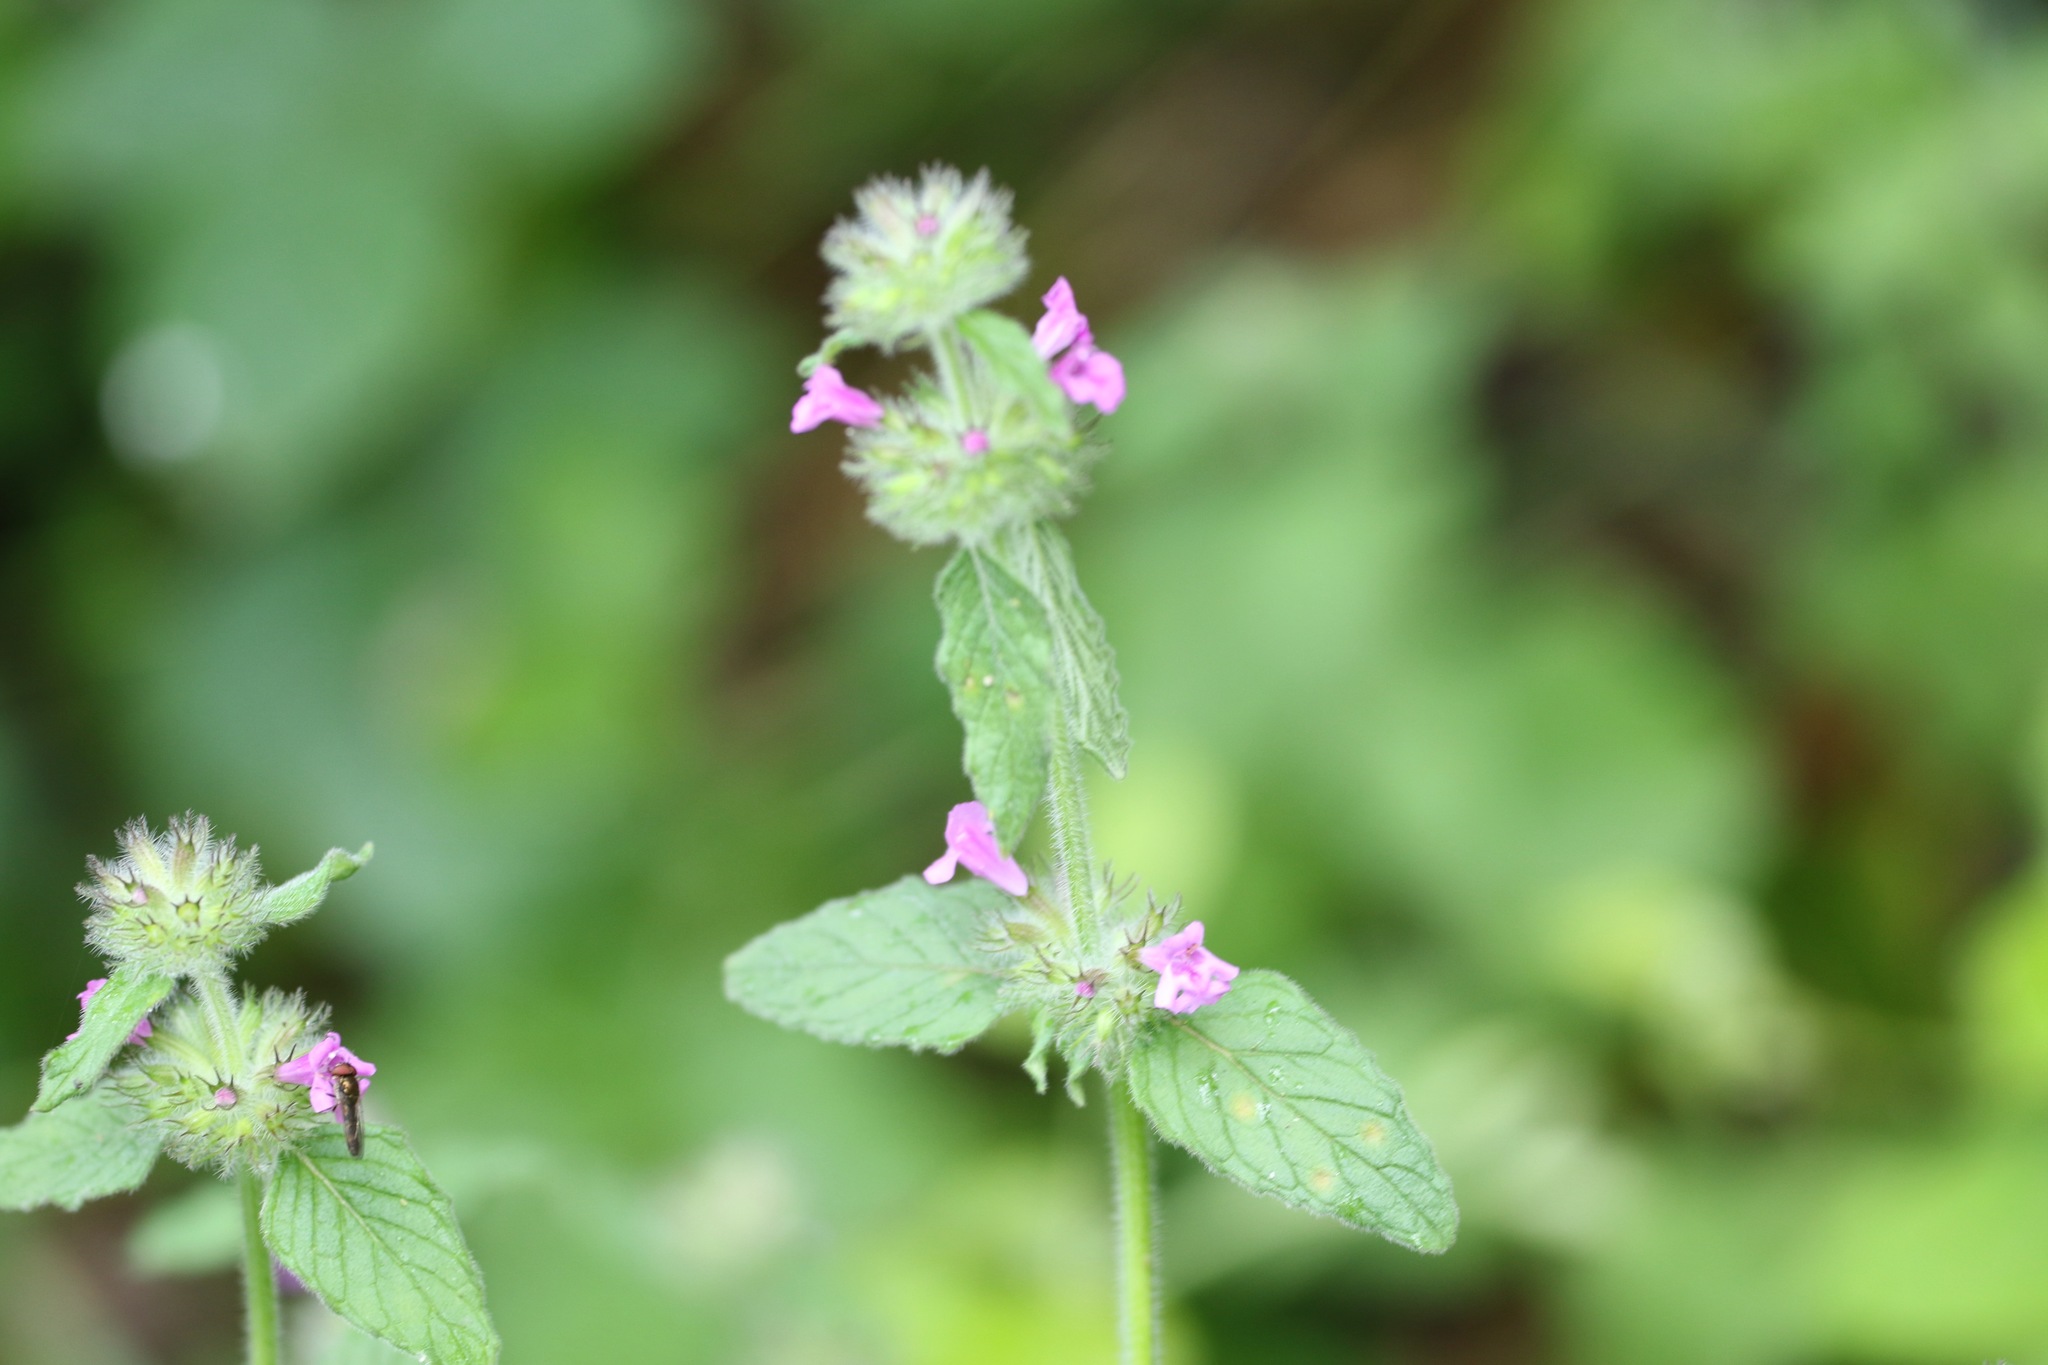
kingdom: Plantae
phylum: Tracheophyta
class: Magnoliopsida
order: Lamiales
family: Lamiaceae
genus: Clinopodium
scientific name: Clinopodium vulgare
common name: Wild basil
